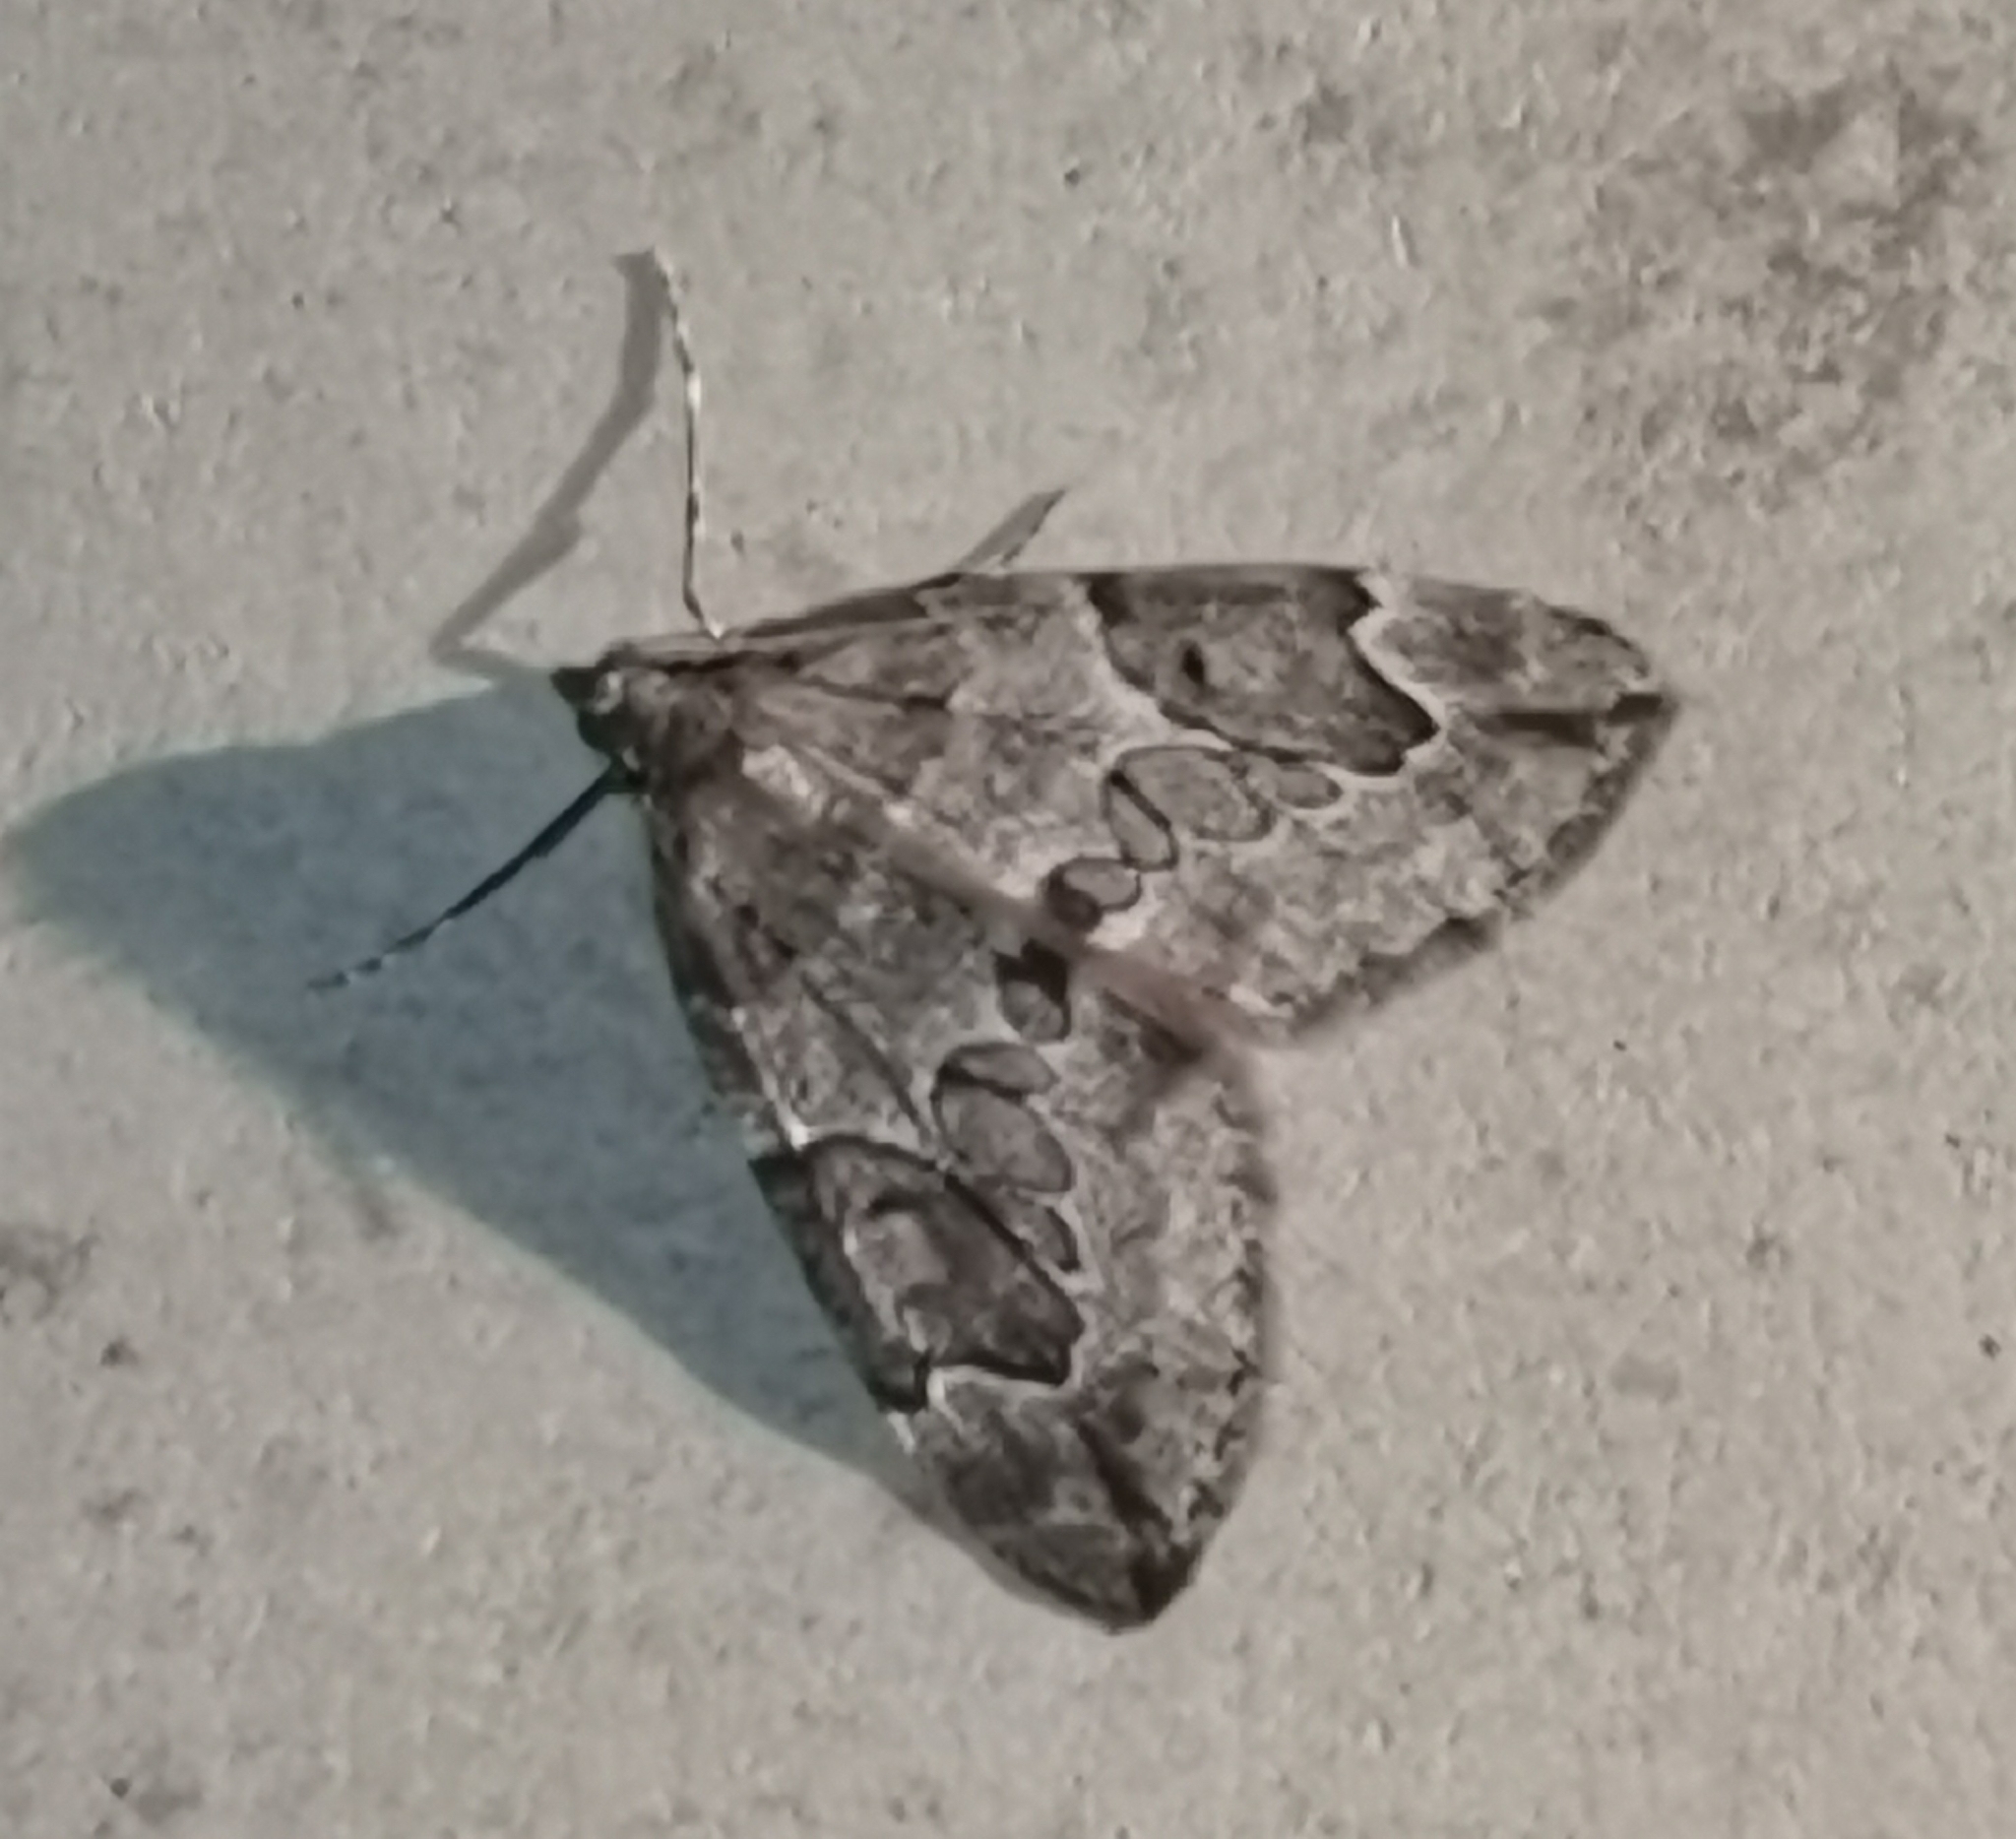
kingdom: Animalia
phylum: Arthropoda
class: Insecta
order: Lepidoptera
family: Geometridae
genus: Thera
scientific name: Thera juniperata
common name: Juniper carpet
